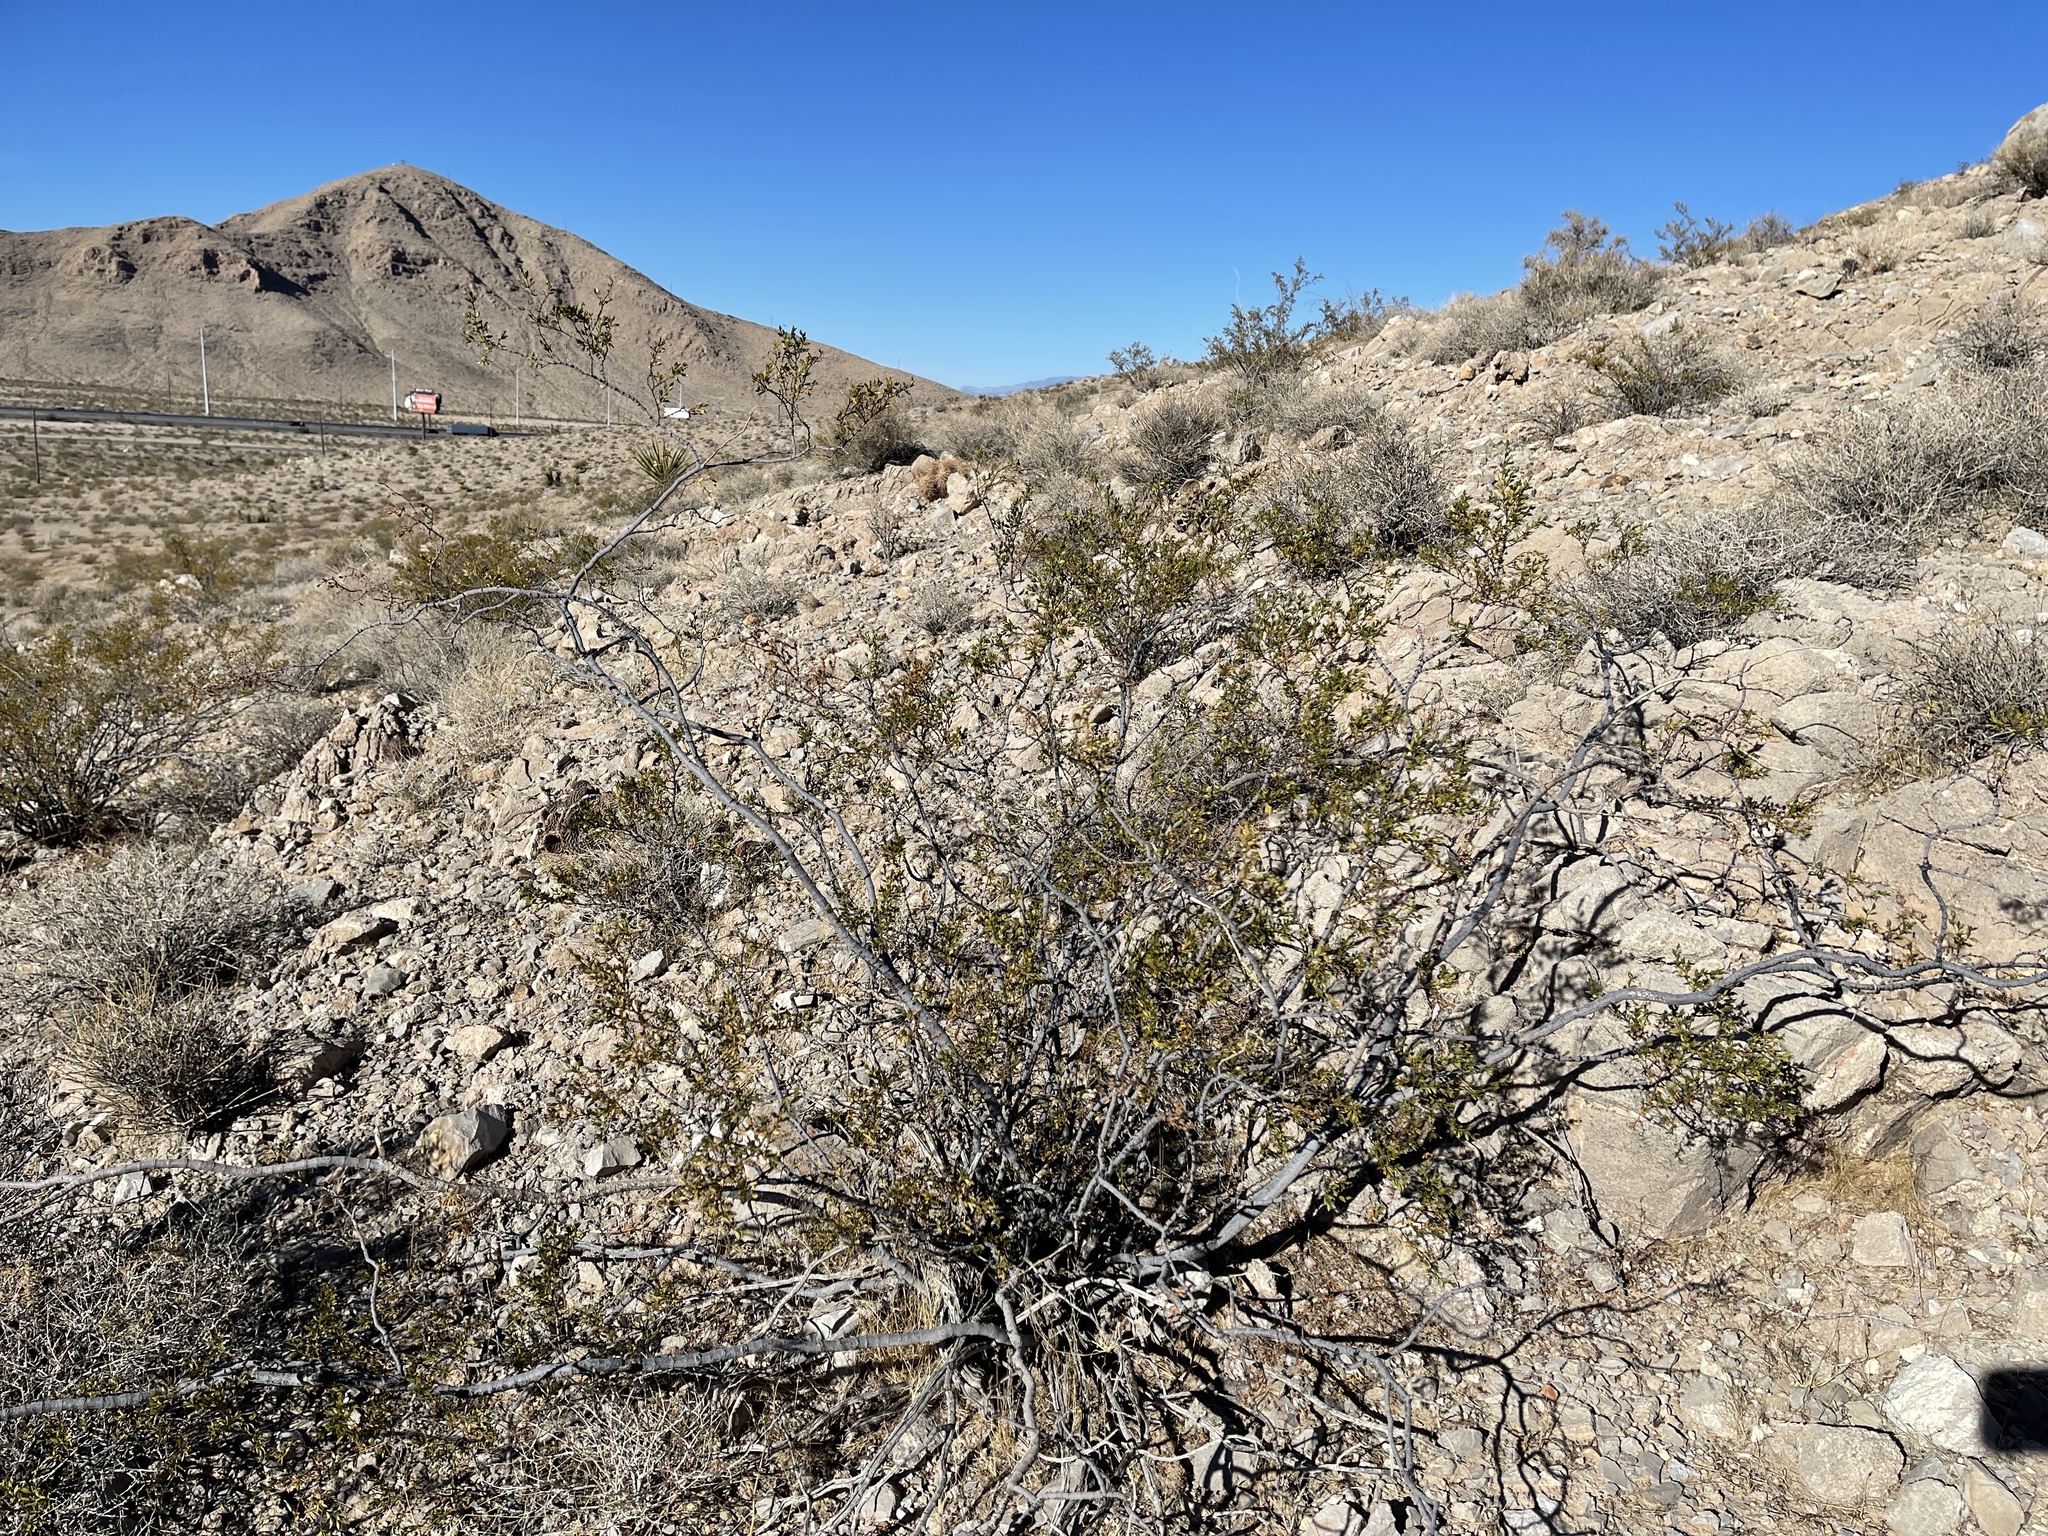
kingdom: Plantae
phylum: Tracheophyta
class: Magnoliopsida
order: Zygophyllales
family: Zygophyllaceae
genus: Larrea
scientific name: Larrea tridentata
